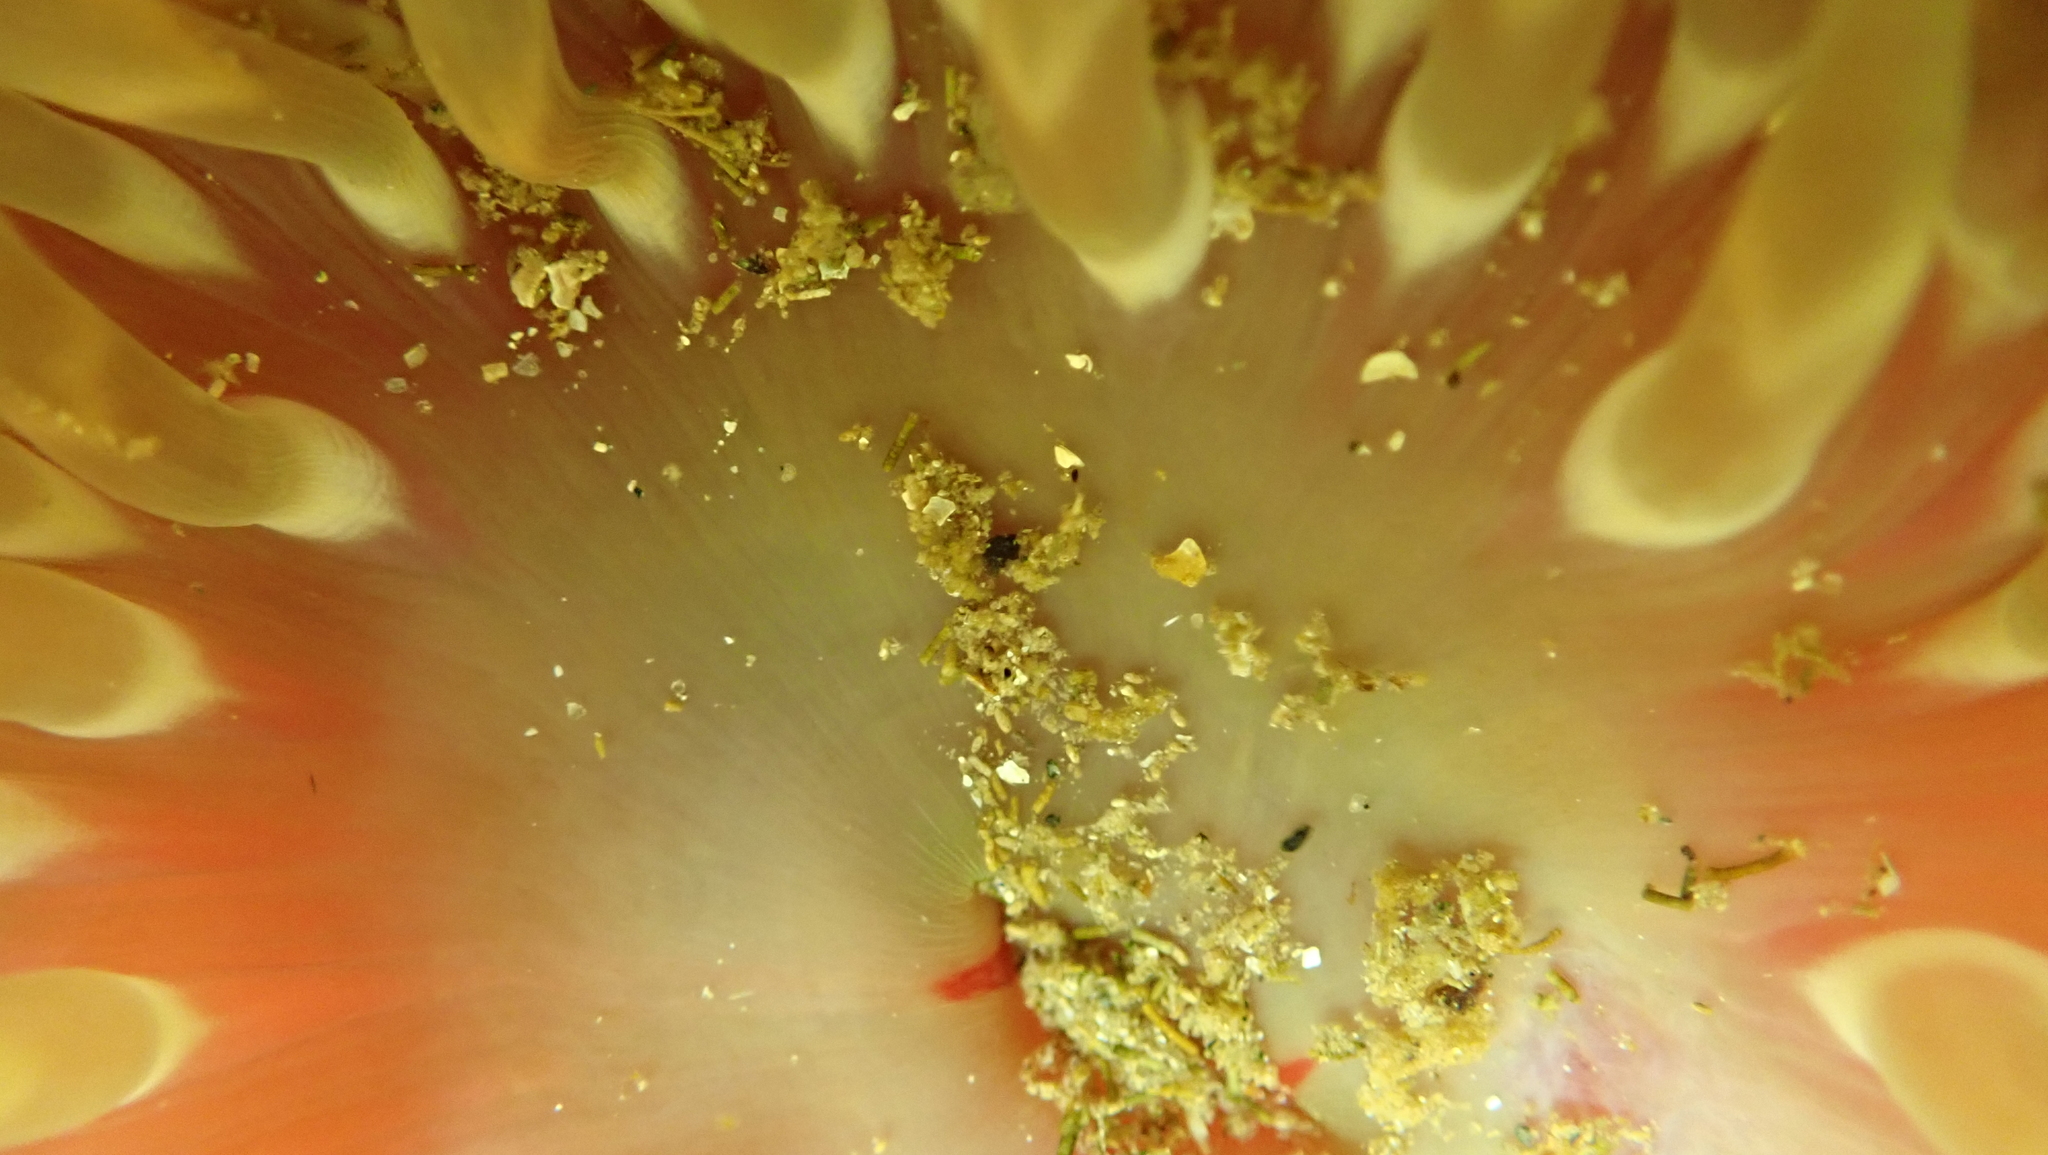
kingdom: Animalia
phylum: Cnidaria
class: Anthozoa
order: Actiniaria
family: Actiniidae
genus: Urticina
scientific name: Urticina clandestina
